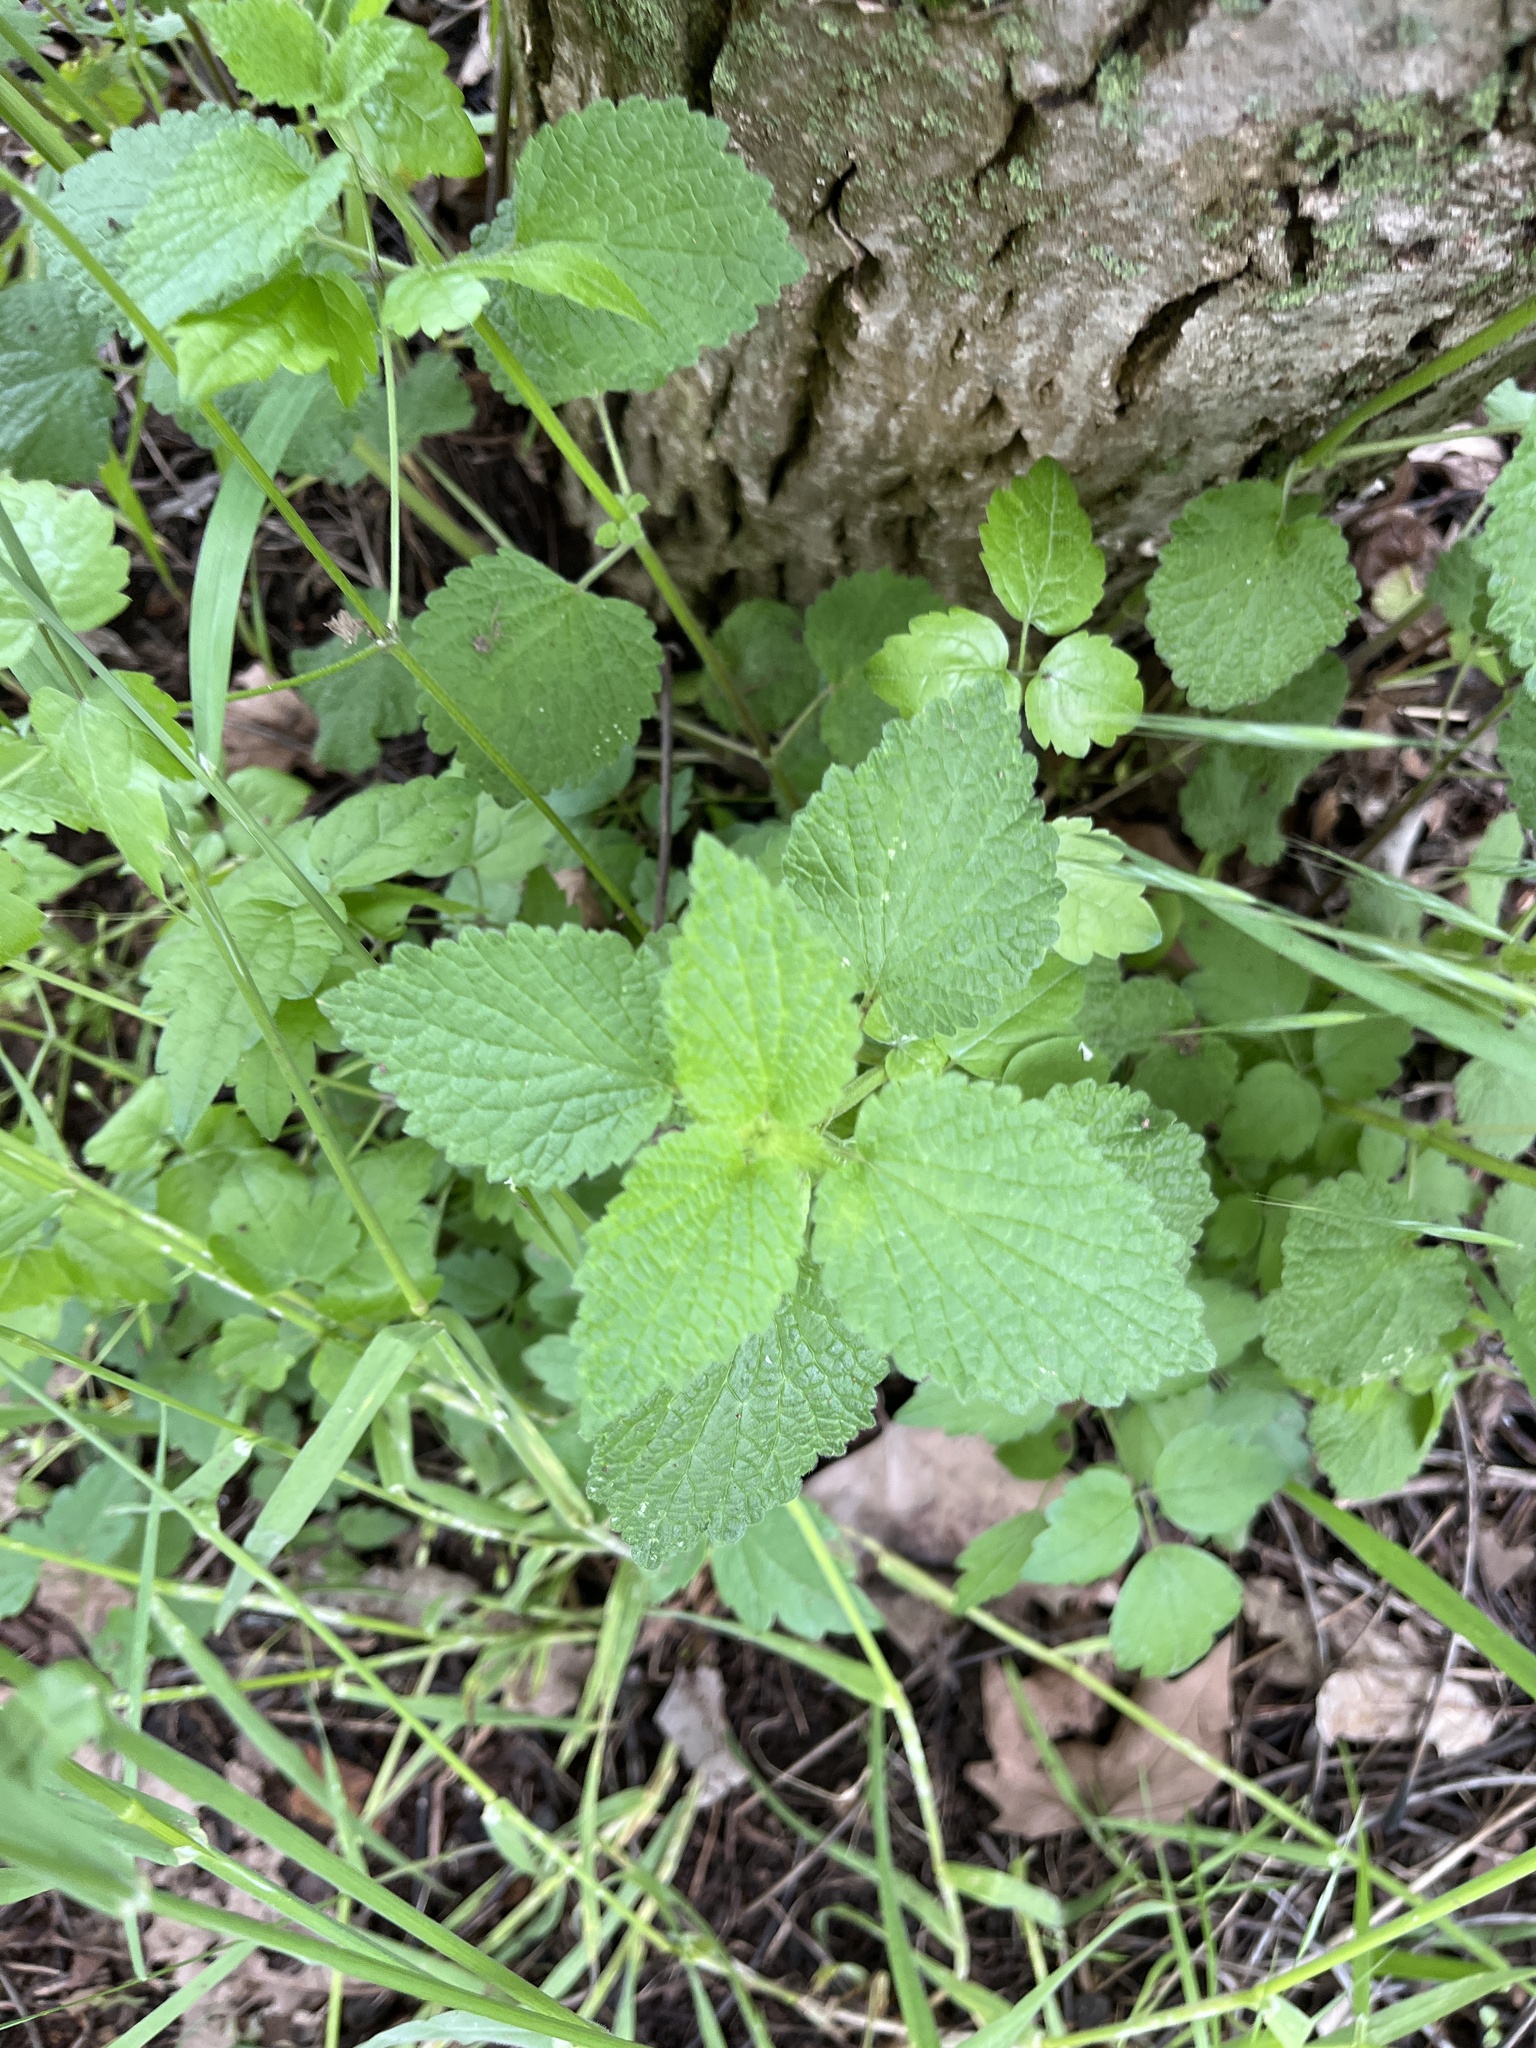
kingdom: Plantae
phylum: Tracheophyta
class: Magnoliopsida
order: Lamiales
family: Lamiaceae
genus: Ballota
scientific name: Ballota nigra
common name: Black horehound
